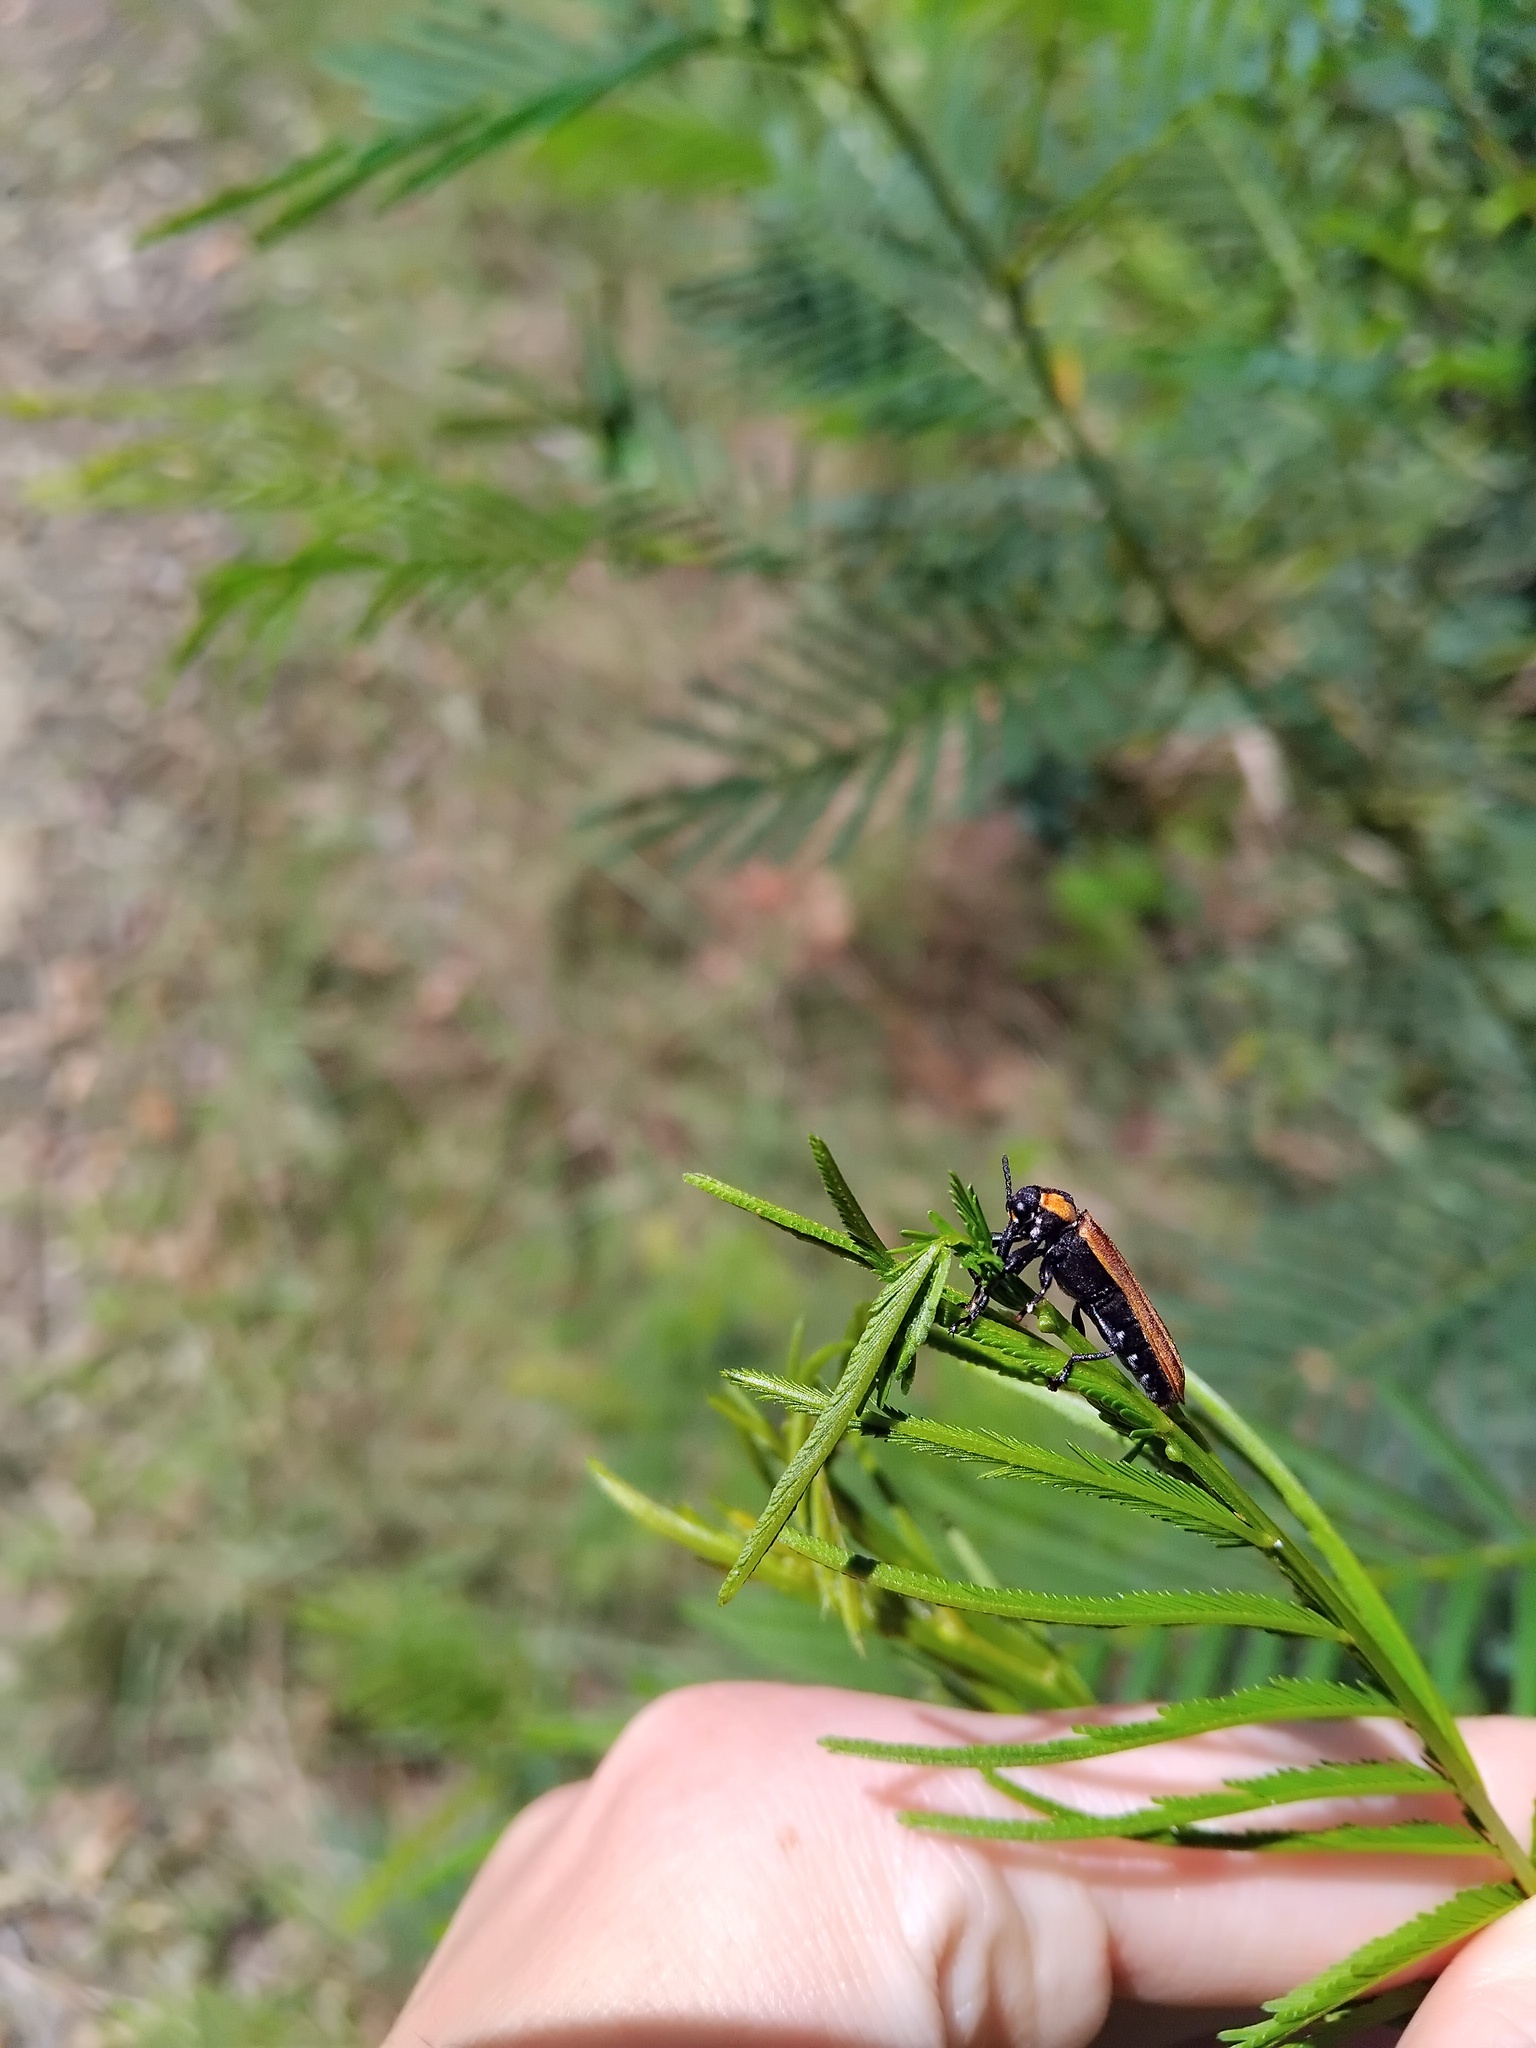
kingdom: Animalia
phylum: Arthropoda
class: Insecta
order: Coleoptera
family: Belidae
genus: Rhinotia
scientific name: Rhinotia haemoptera
